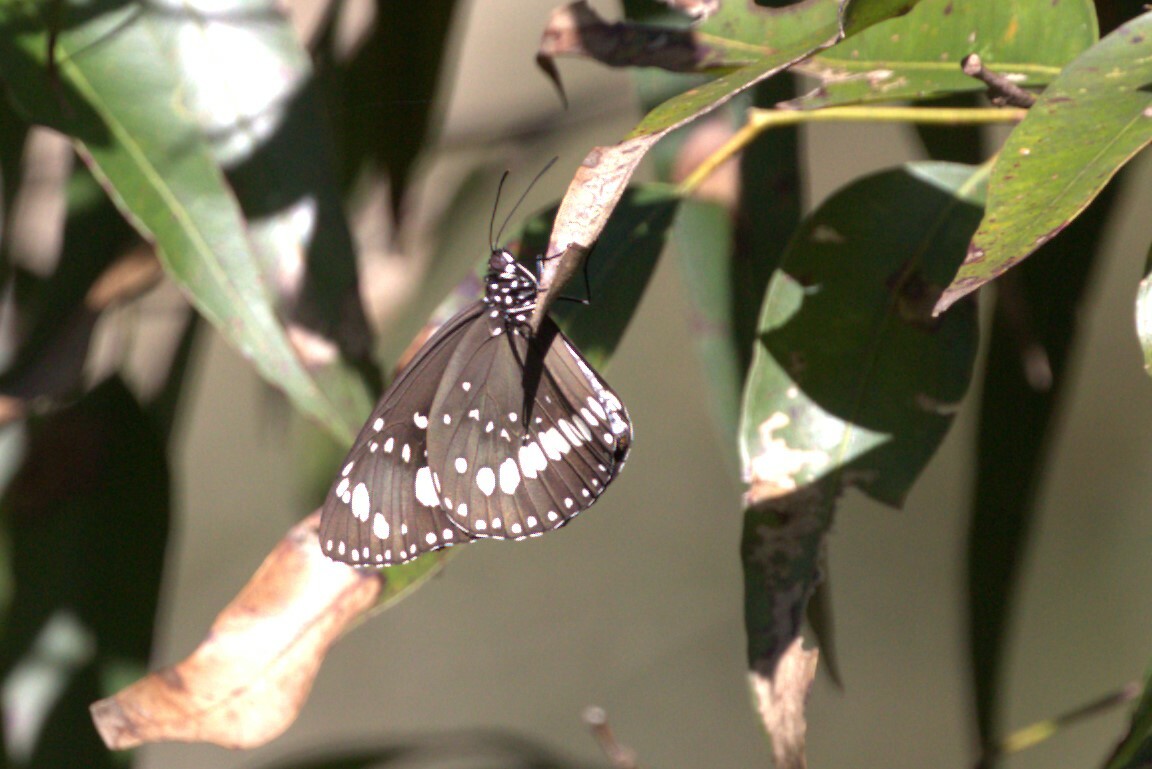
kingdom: Animalia
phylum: Arthropoda
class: Insecta
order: Lepidoptera
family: Nymphalidae
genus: Euploea
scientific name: Euploea core
